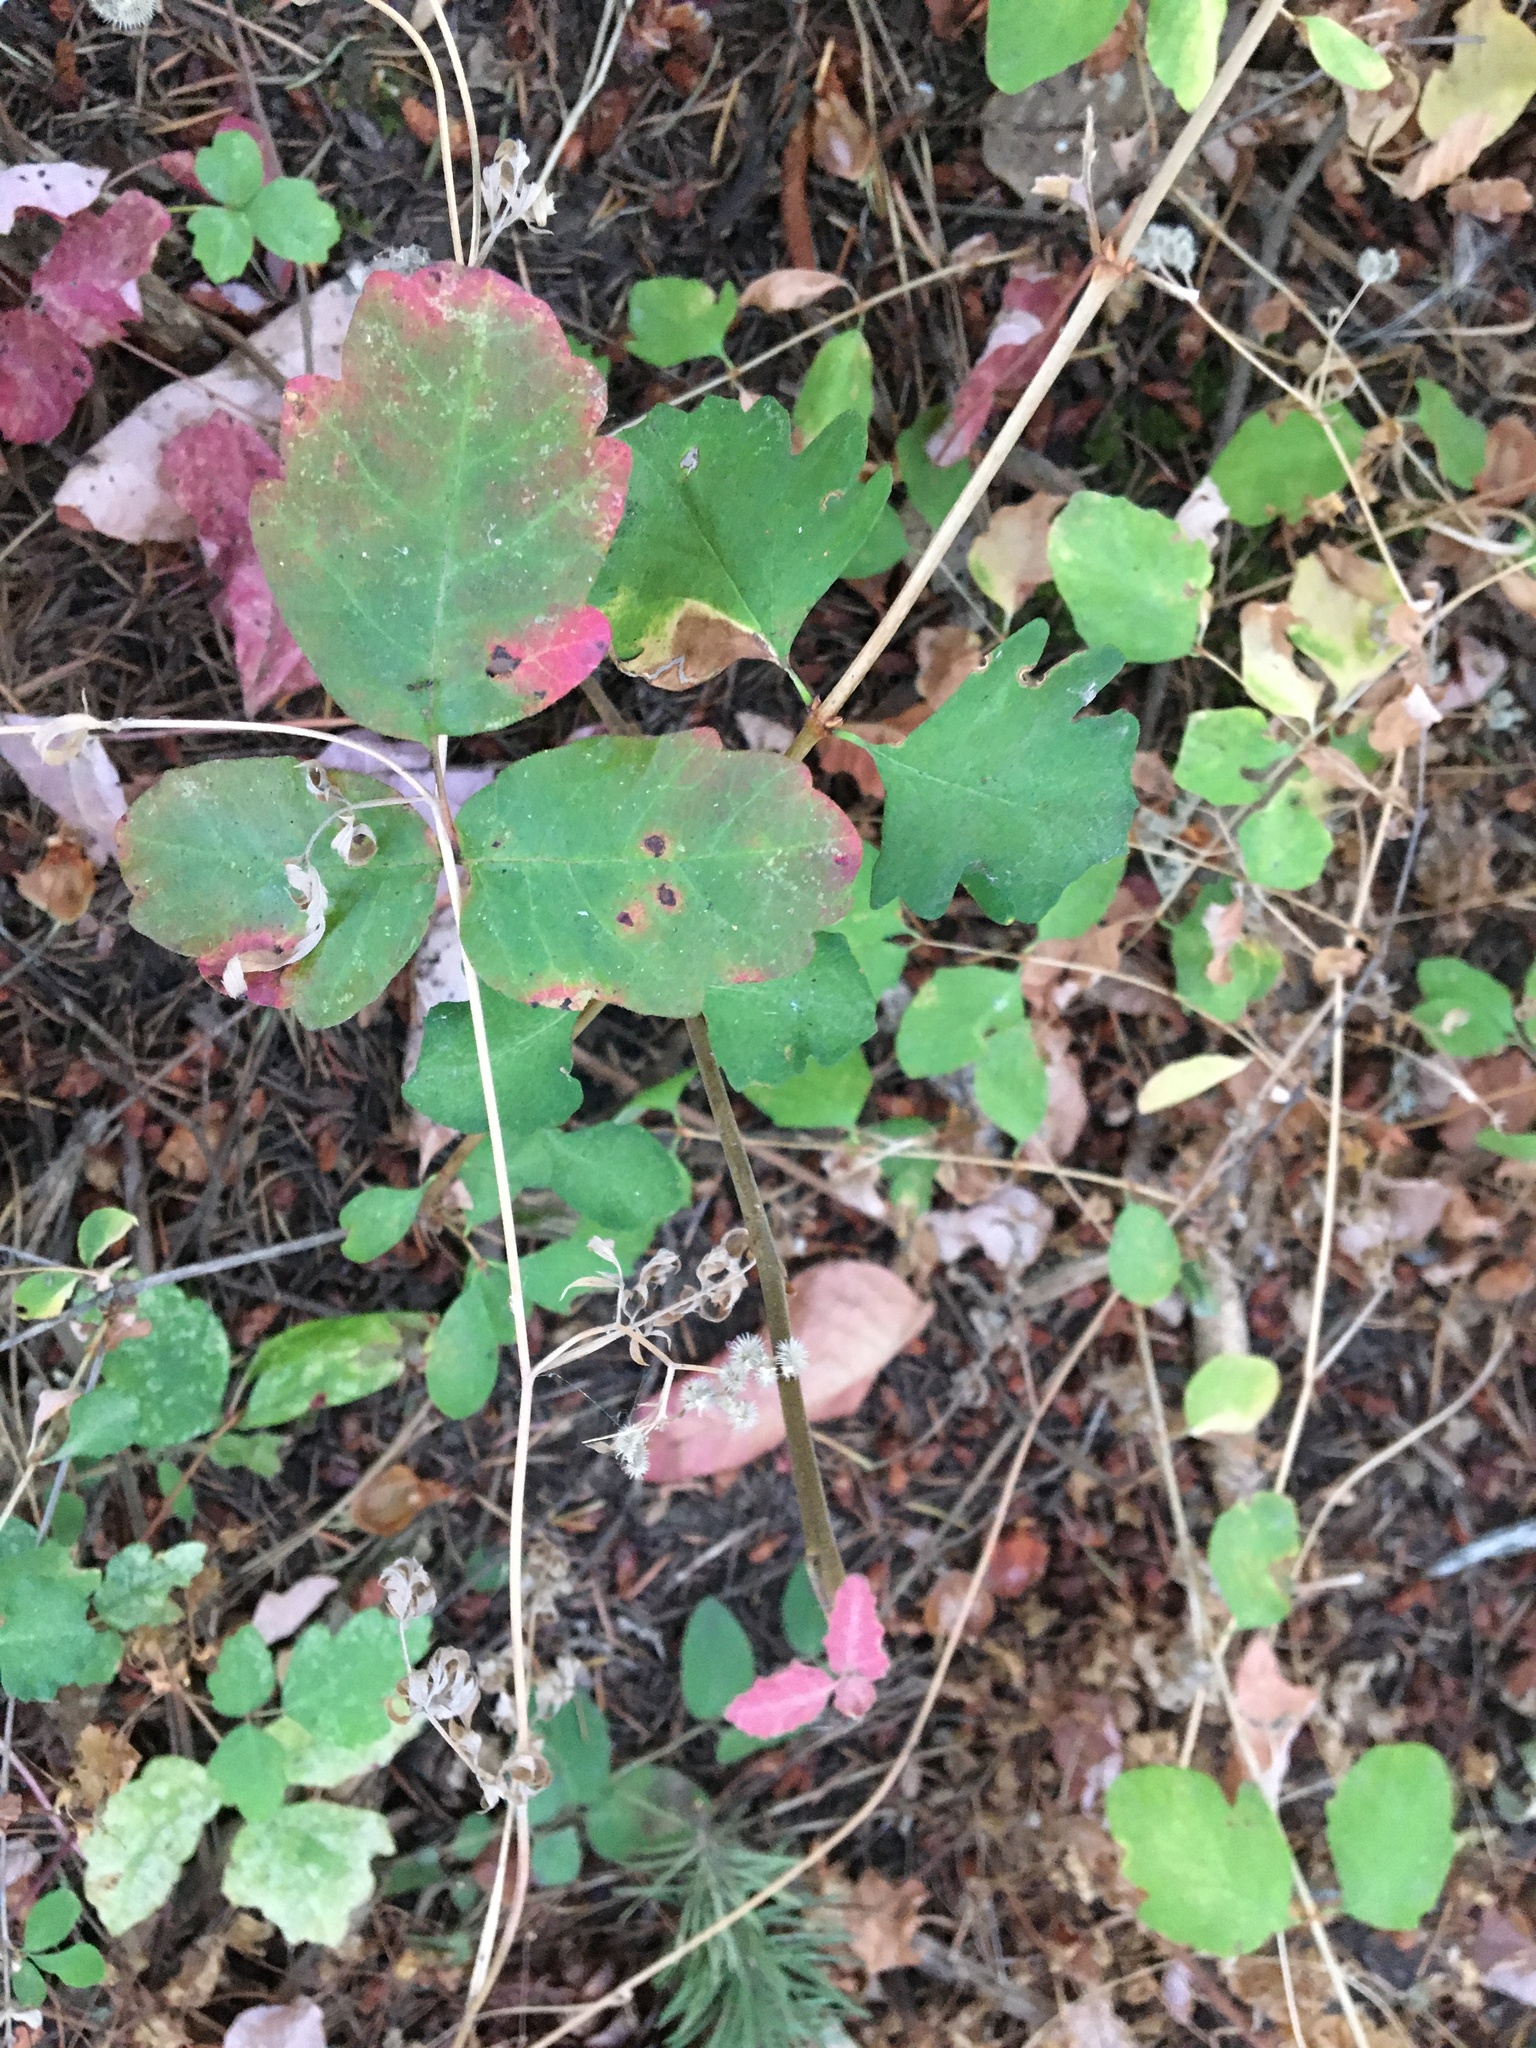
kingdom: Plantae
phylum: Tracheophyta
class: Magnoliopsida
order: Sapindales
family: Anacardiaceae
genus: Toxicodendron
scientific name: Toxicodendron diversilobum
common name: Pacific poison-oak
